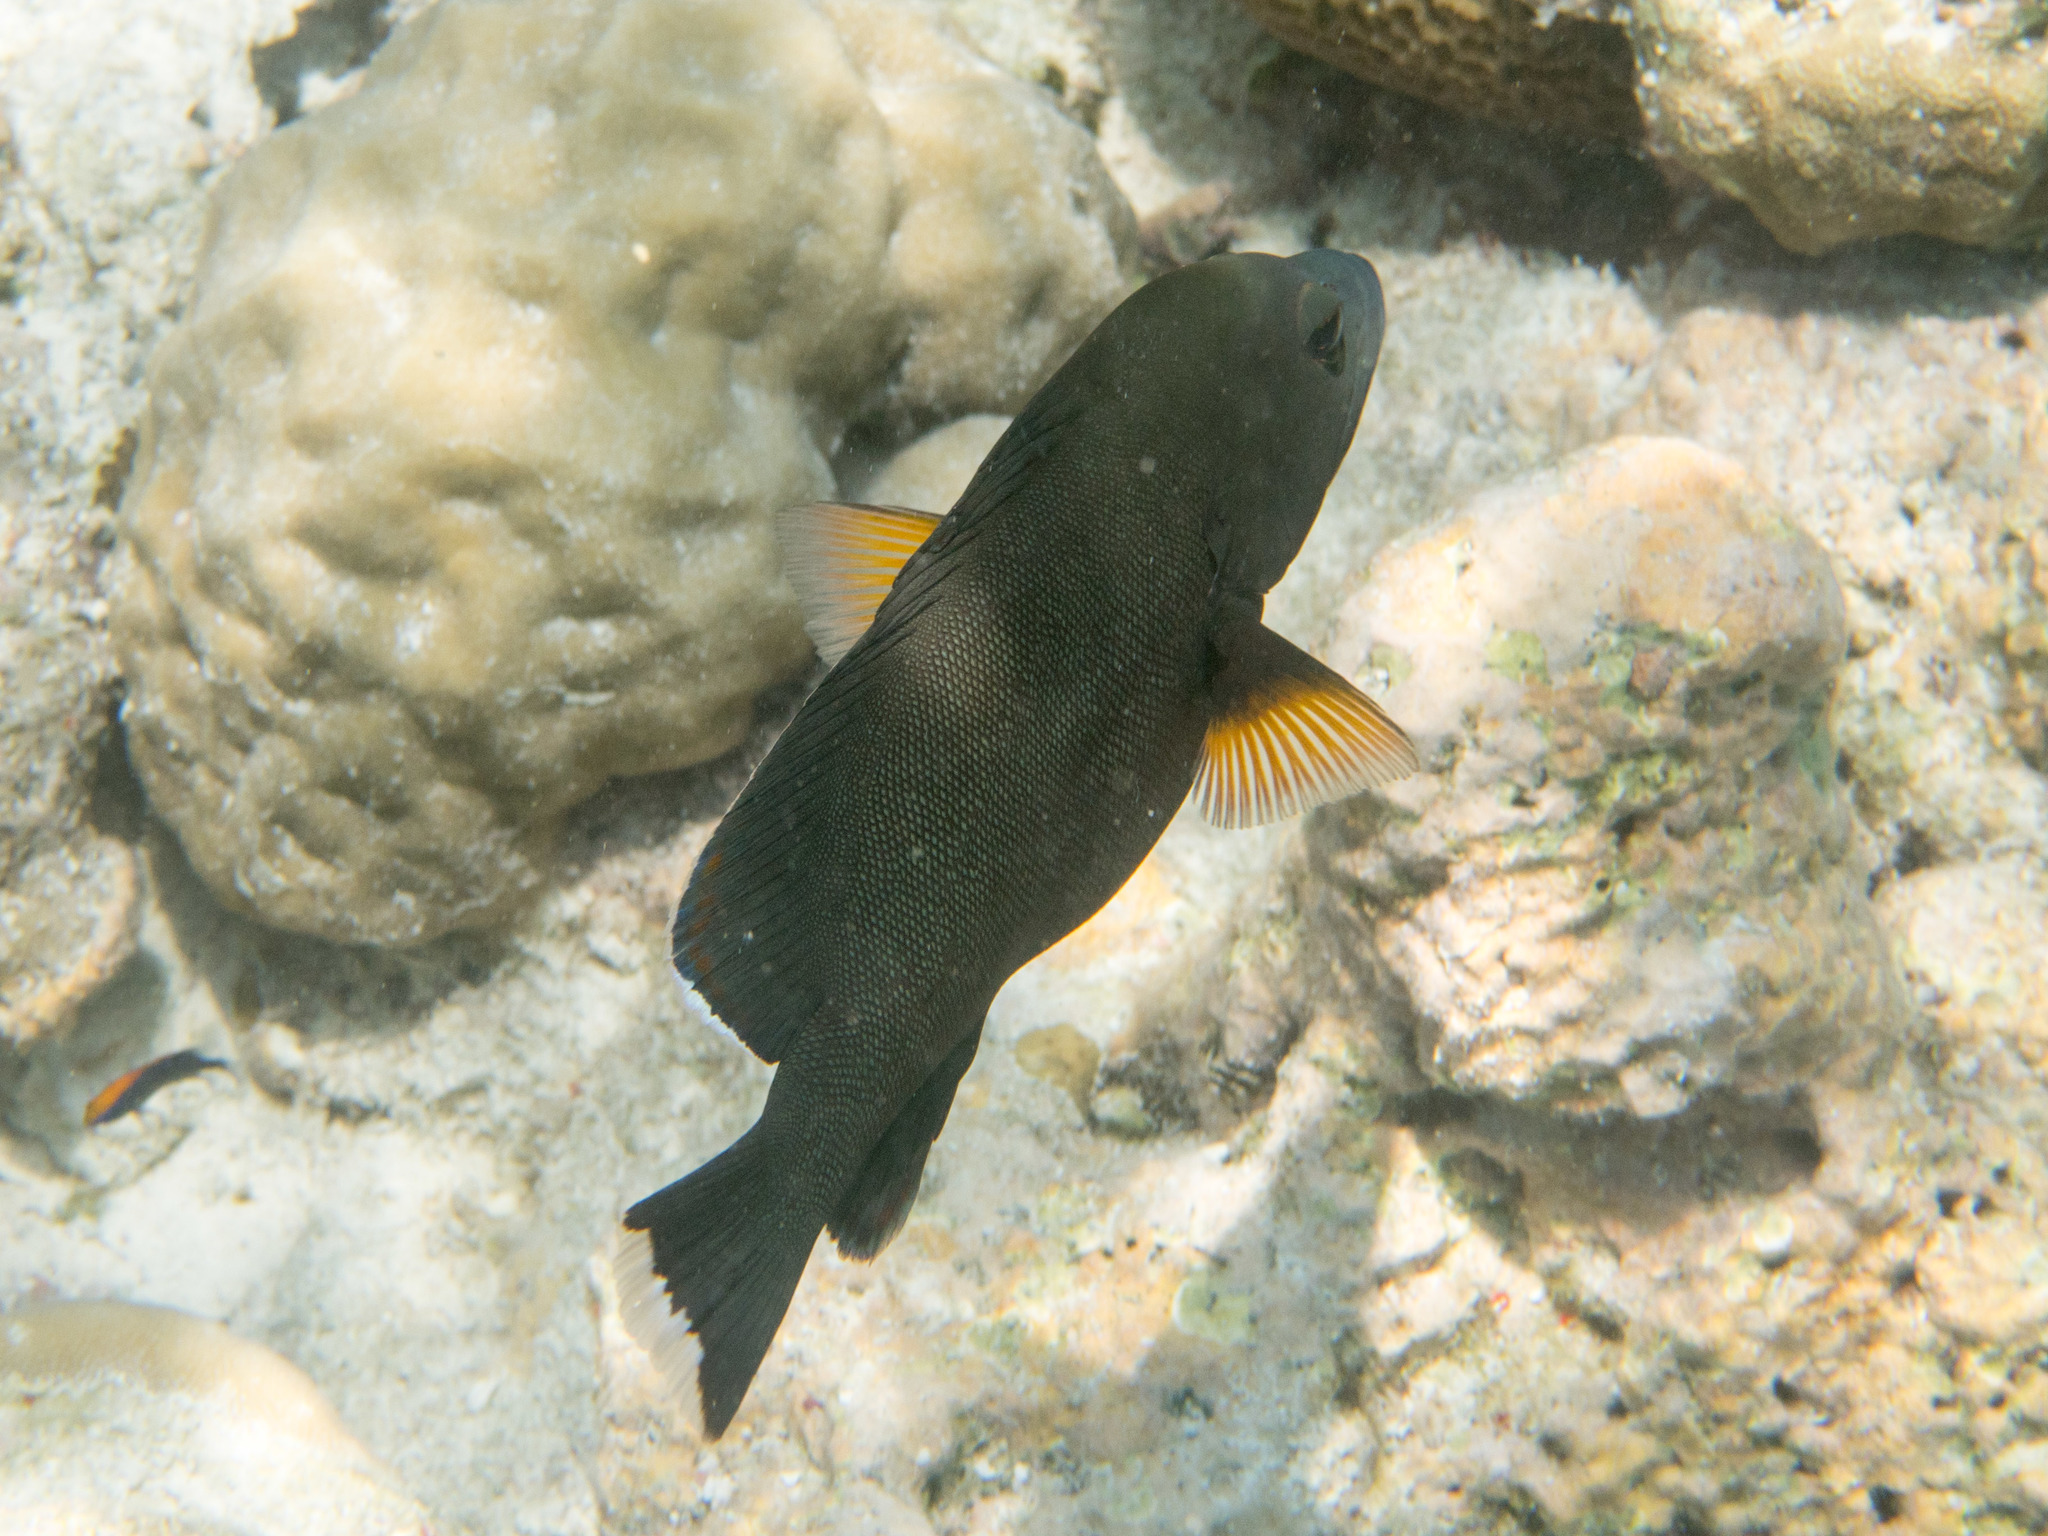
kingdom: Animalia
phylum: Chordata
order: Perciformes
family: Serranidae
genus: Aethaloperca
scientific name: Aethaloperca rogaa
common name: Redmouth grouper
